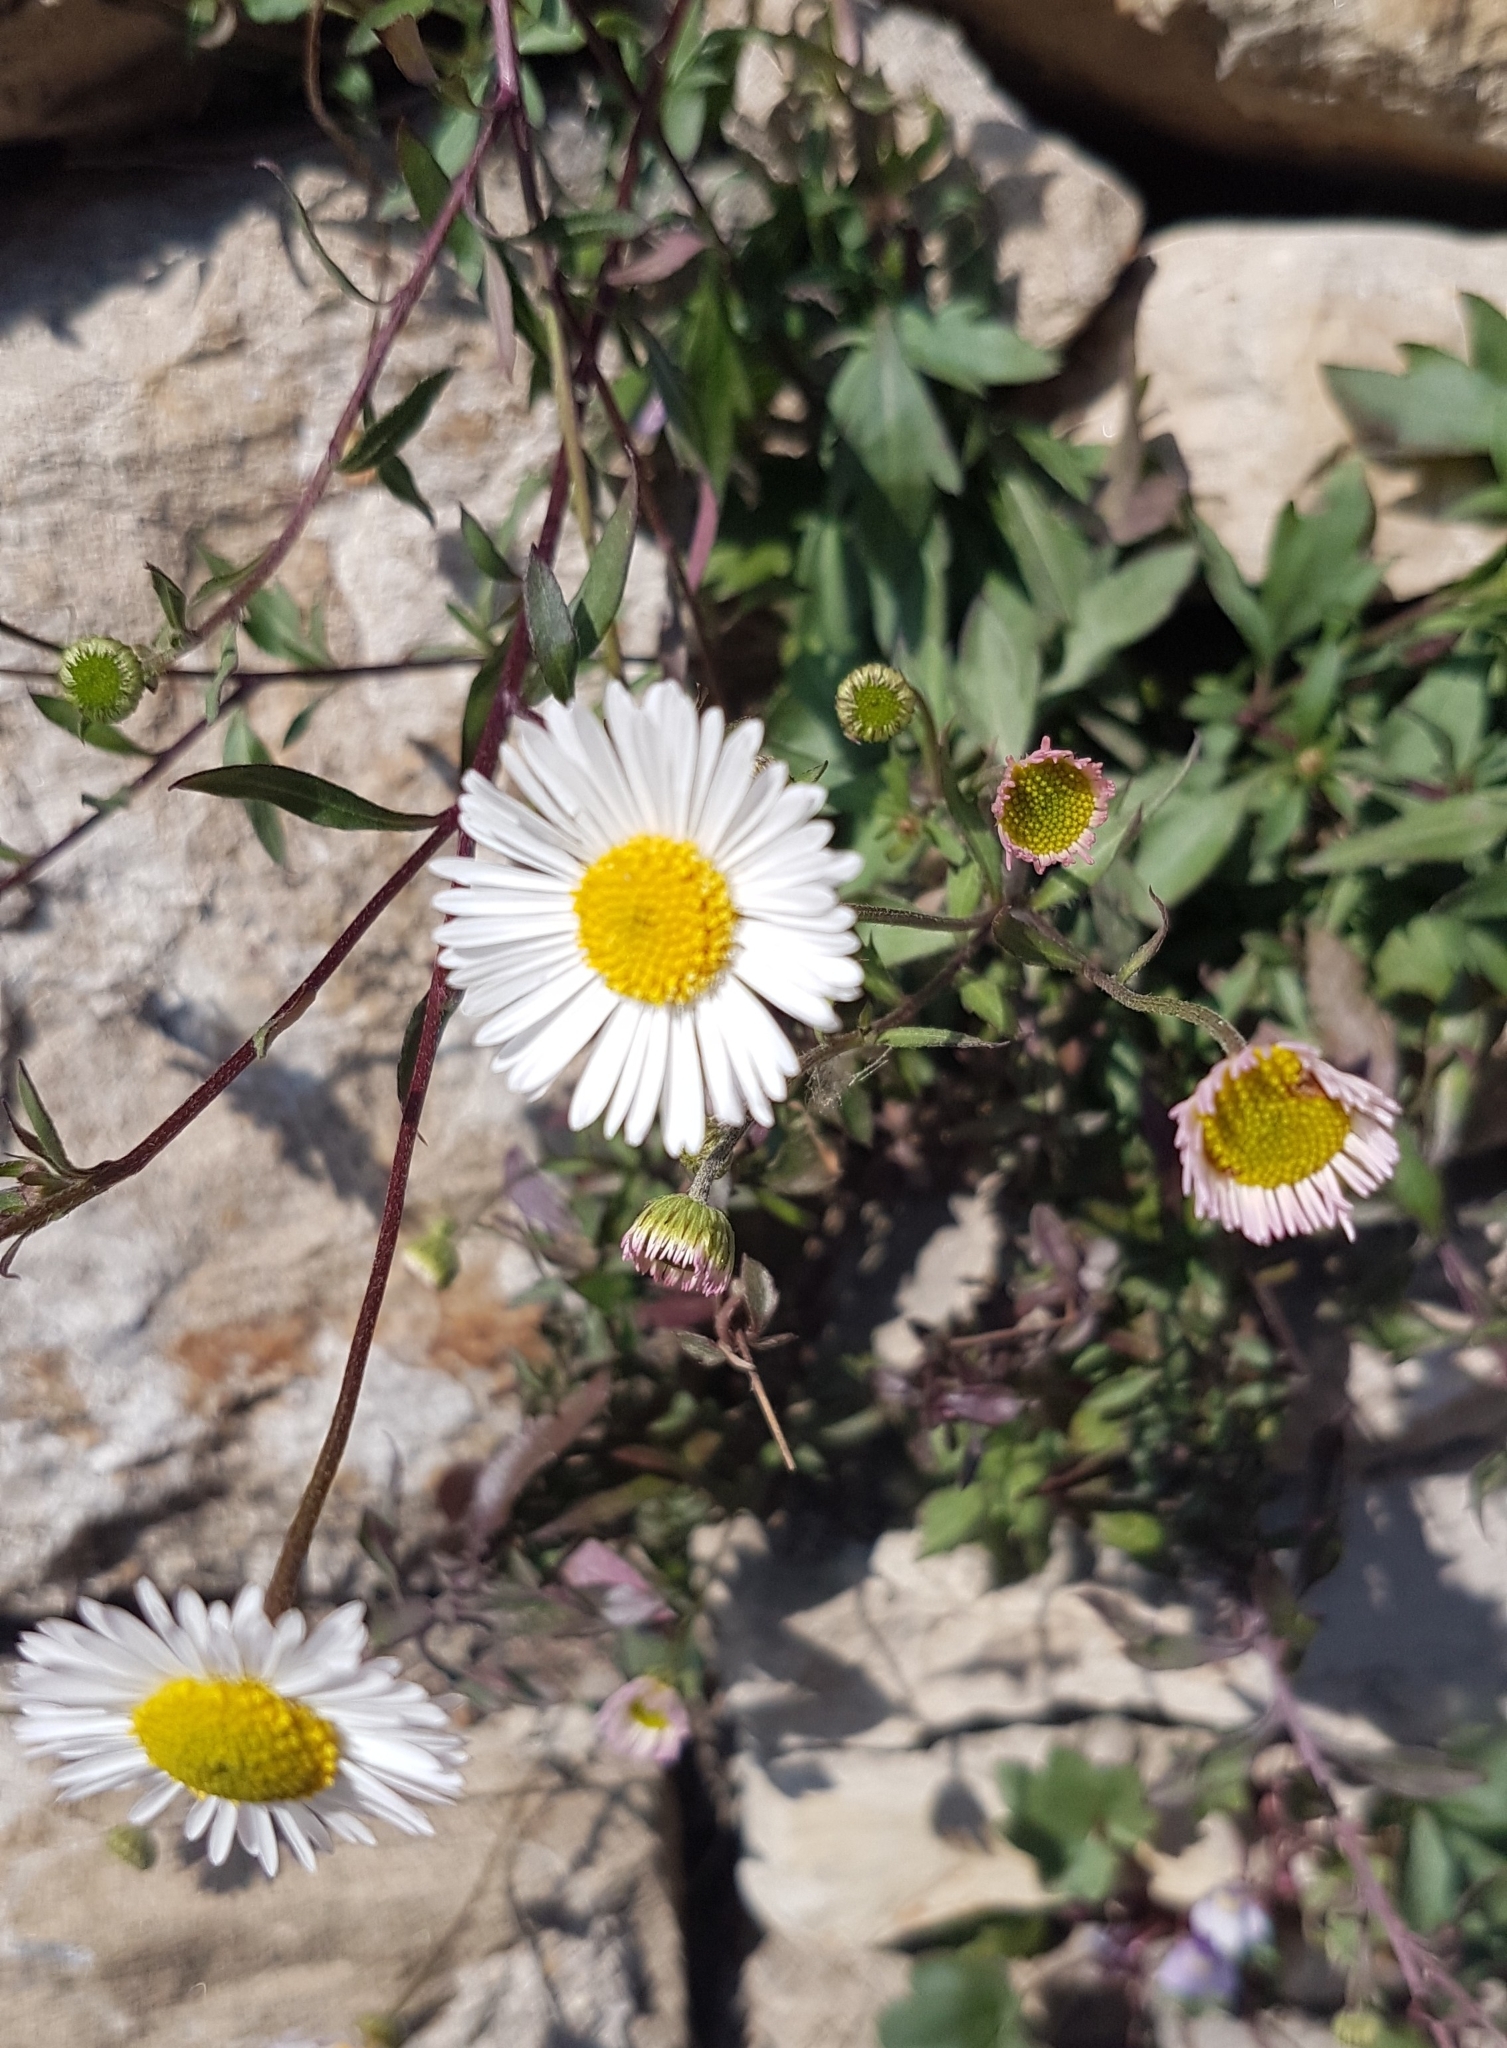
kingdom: Plantae
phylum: Tracheophyta
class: Magnoliopsida
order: Asterales
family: Asteraceae
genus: Erigeron
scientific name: Erigeron karvinskianus
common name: Mexican fleabane
